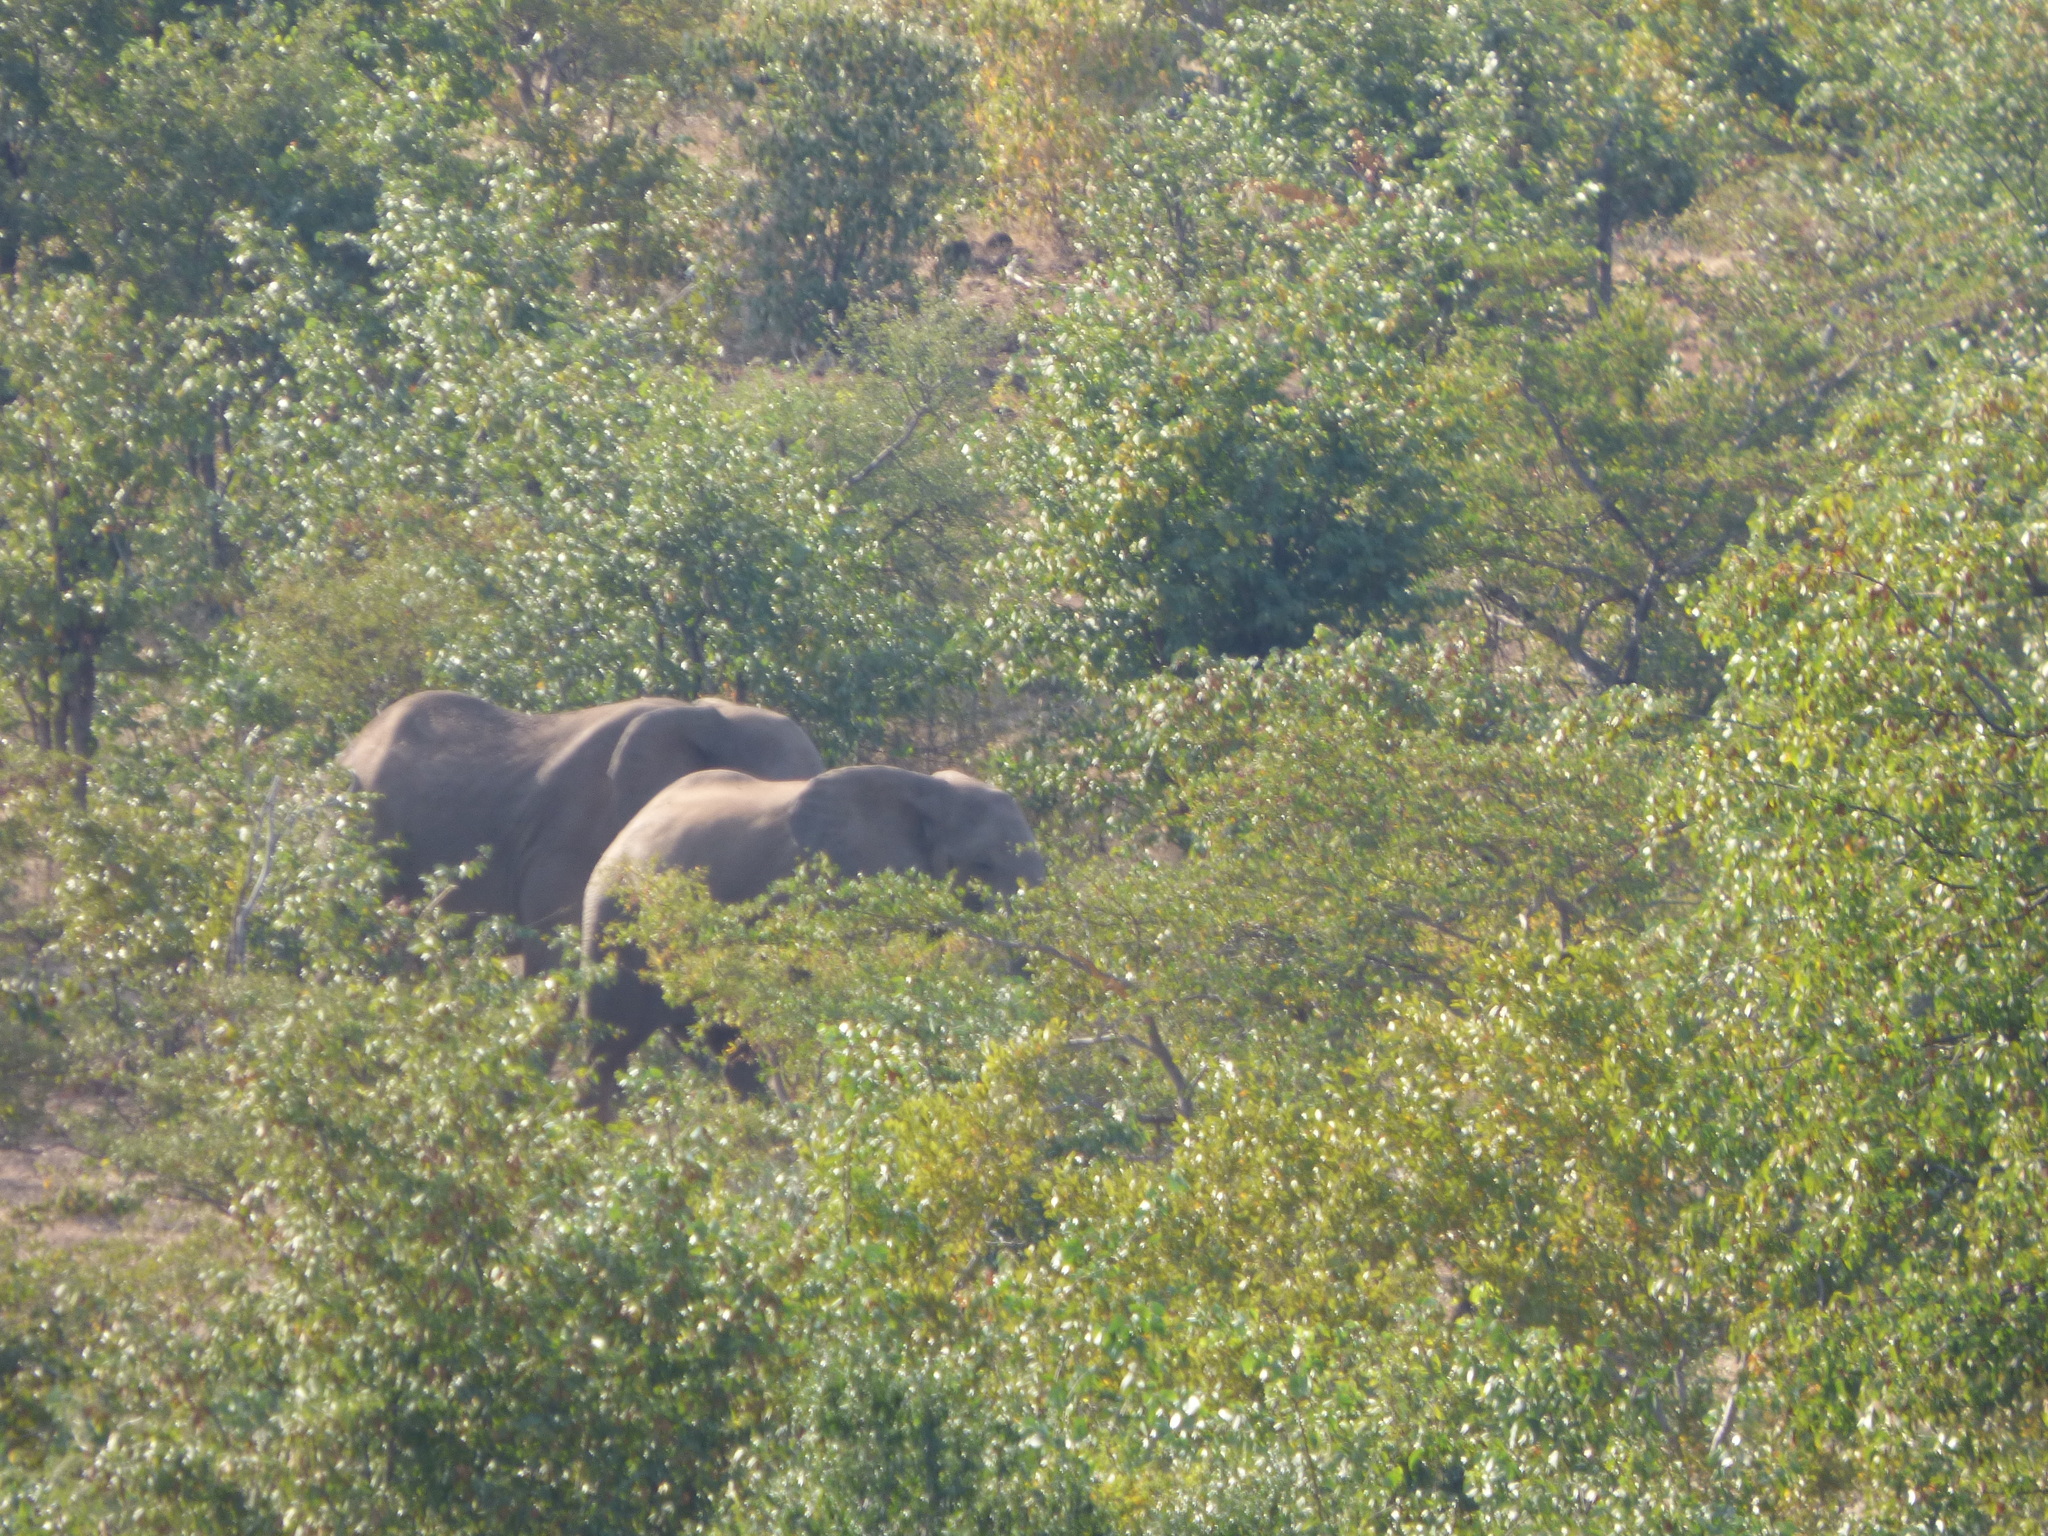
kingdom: Animalia
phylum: Chordata
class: Mammalia
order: Proboscidea
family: Elephantidae
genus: Loxodonta
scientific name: Loxodonta africana
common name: African elephant
